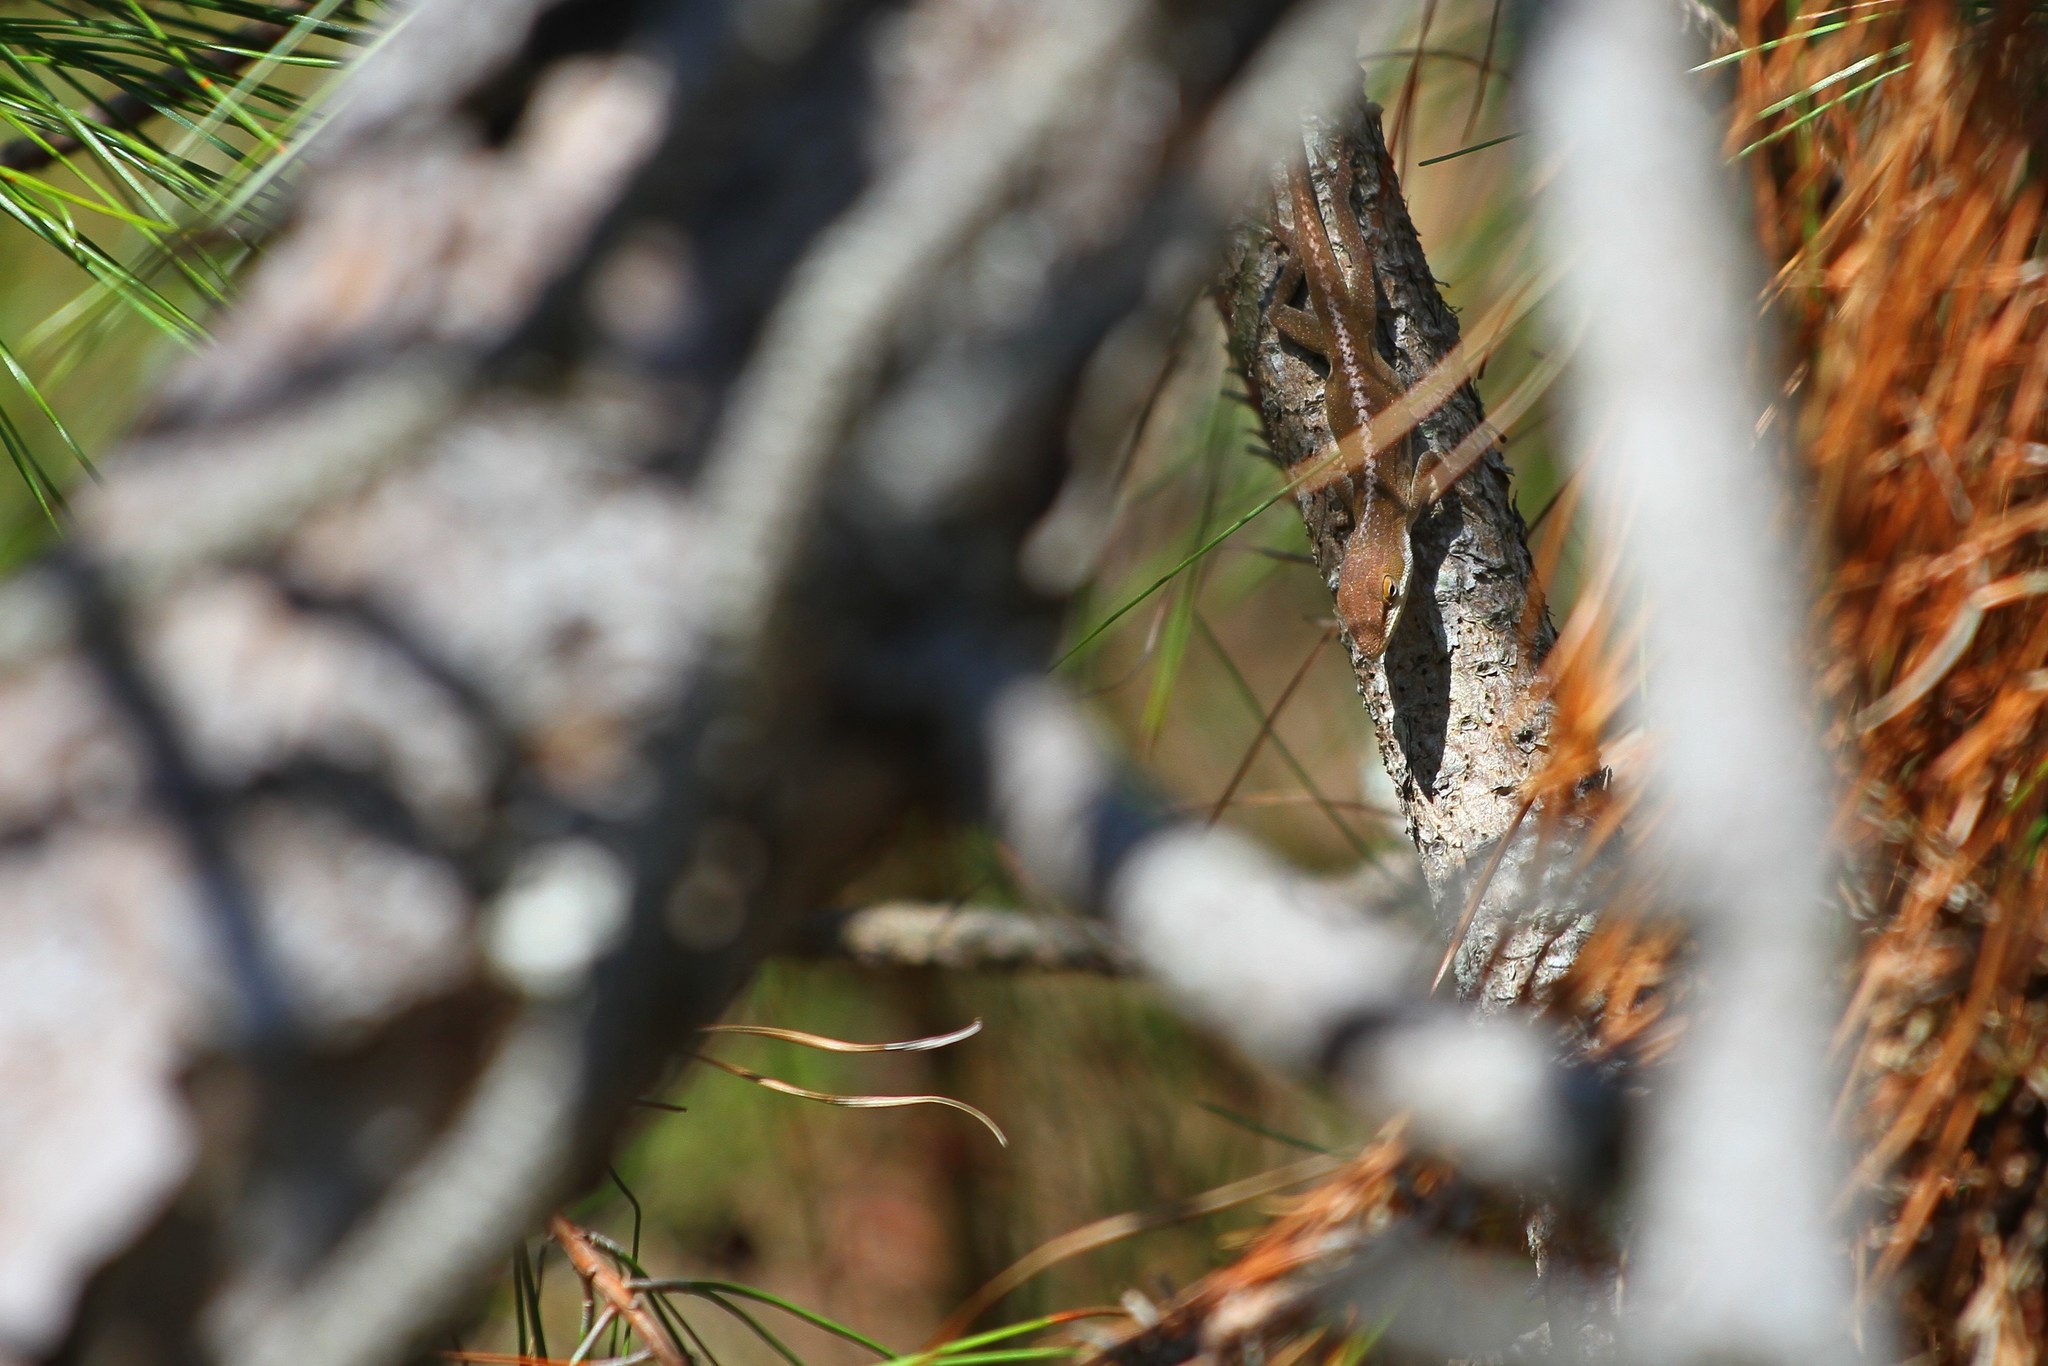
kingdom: Animalia
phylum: Chordata
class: Squamata
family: Dactyloidae
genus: Anolis
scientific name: Anolis carolinensis
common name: Green anole
